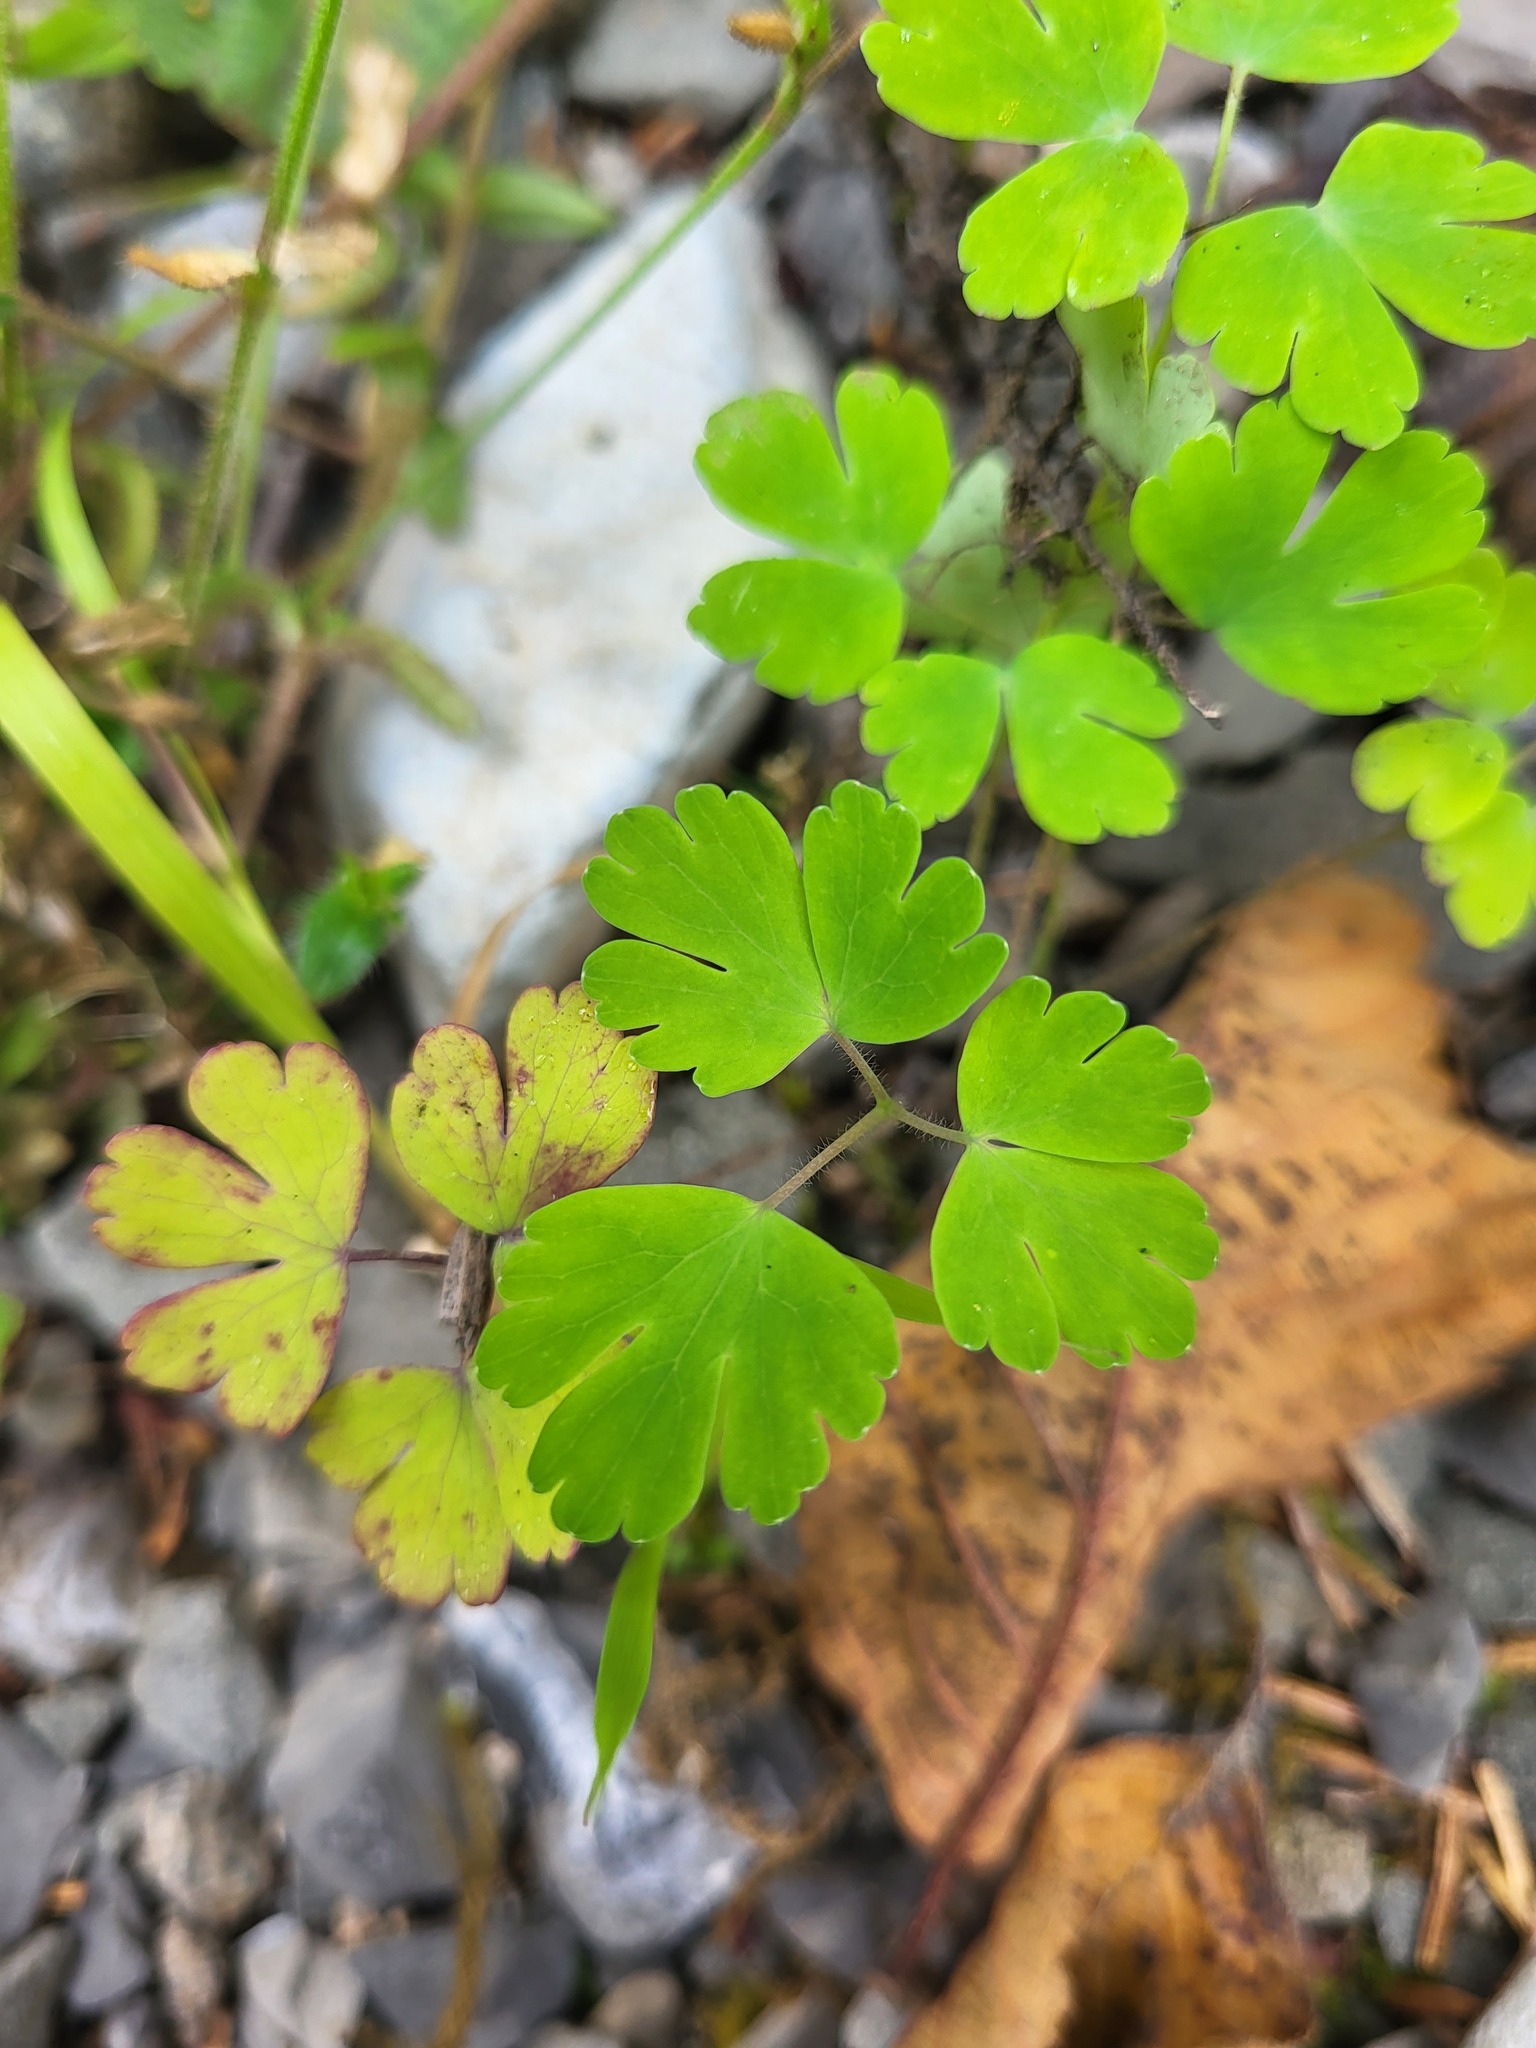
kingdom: Plantae
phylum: Tracheophyta
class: Magnoliopsida
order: Ranunculales
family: Ranunculaceae
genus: Aquilegia
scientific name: Aquilegia formosa
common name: Sitka columbine
